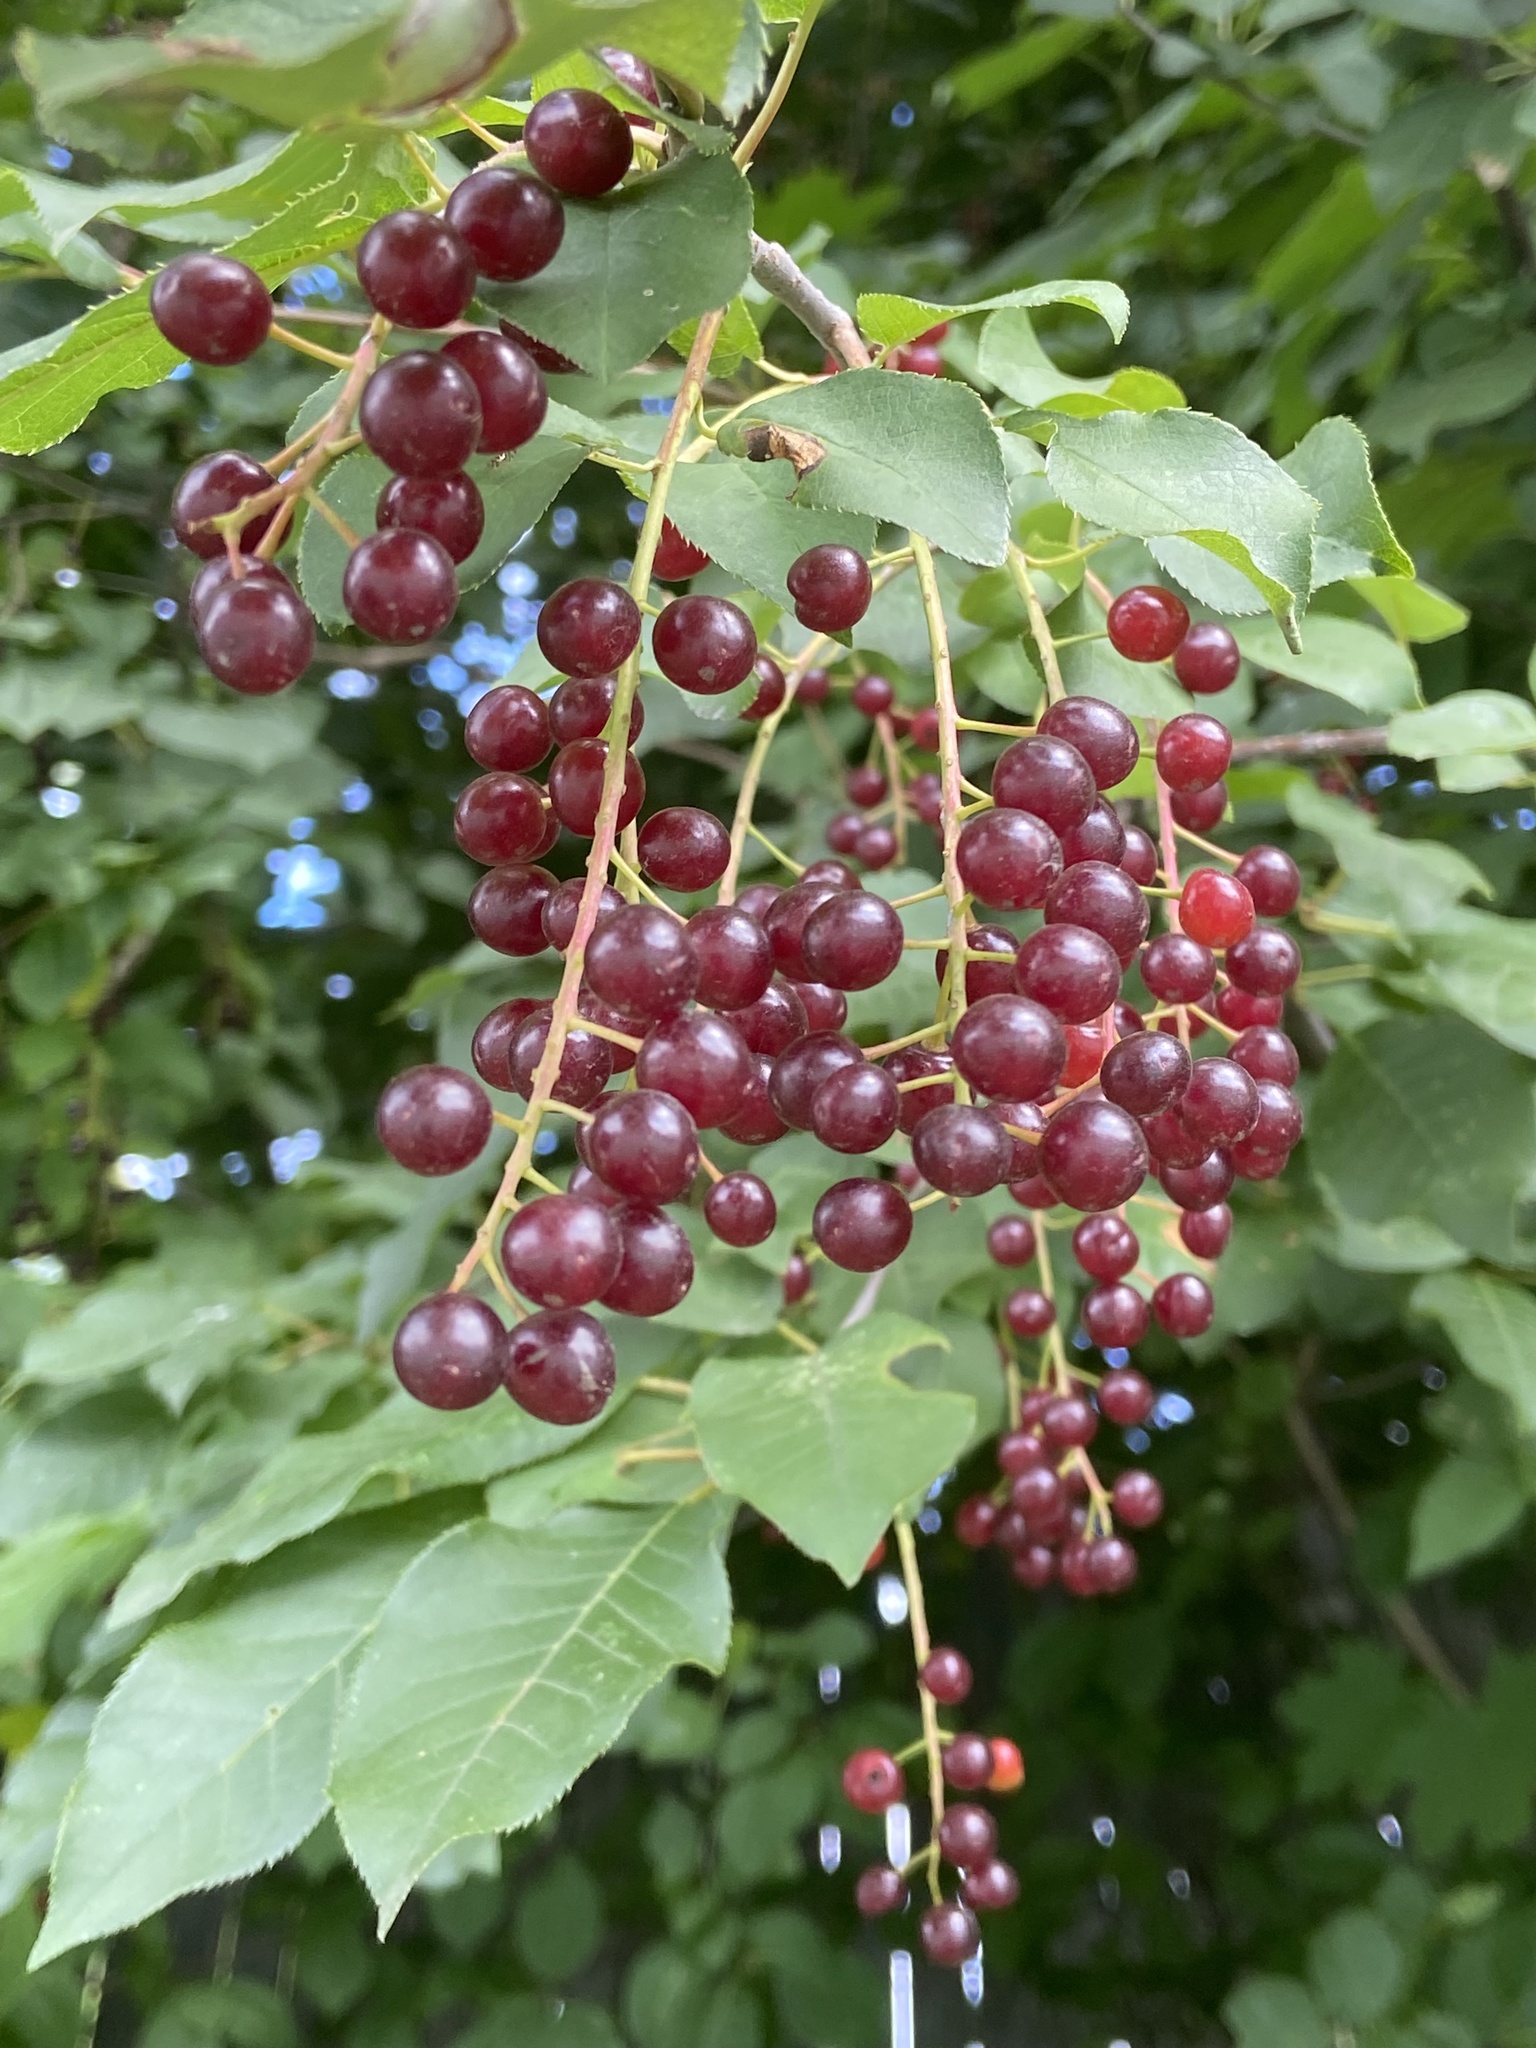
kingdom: Plantae
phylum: Tracheophyta
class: Magnoliopsida
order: Rosales
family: Rosaceae
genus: Prunus
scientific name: Prunus virginiana
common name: Chokecherry
